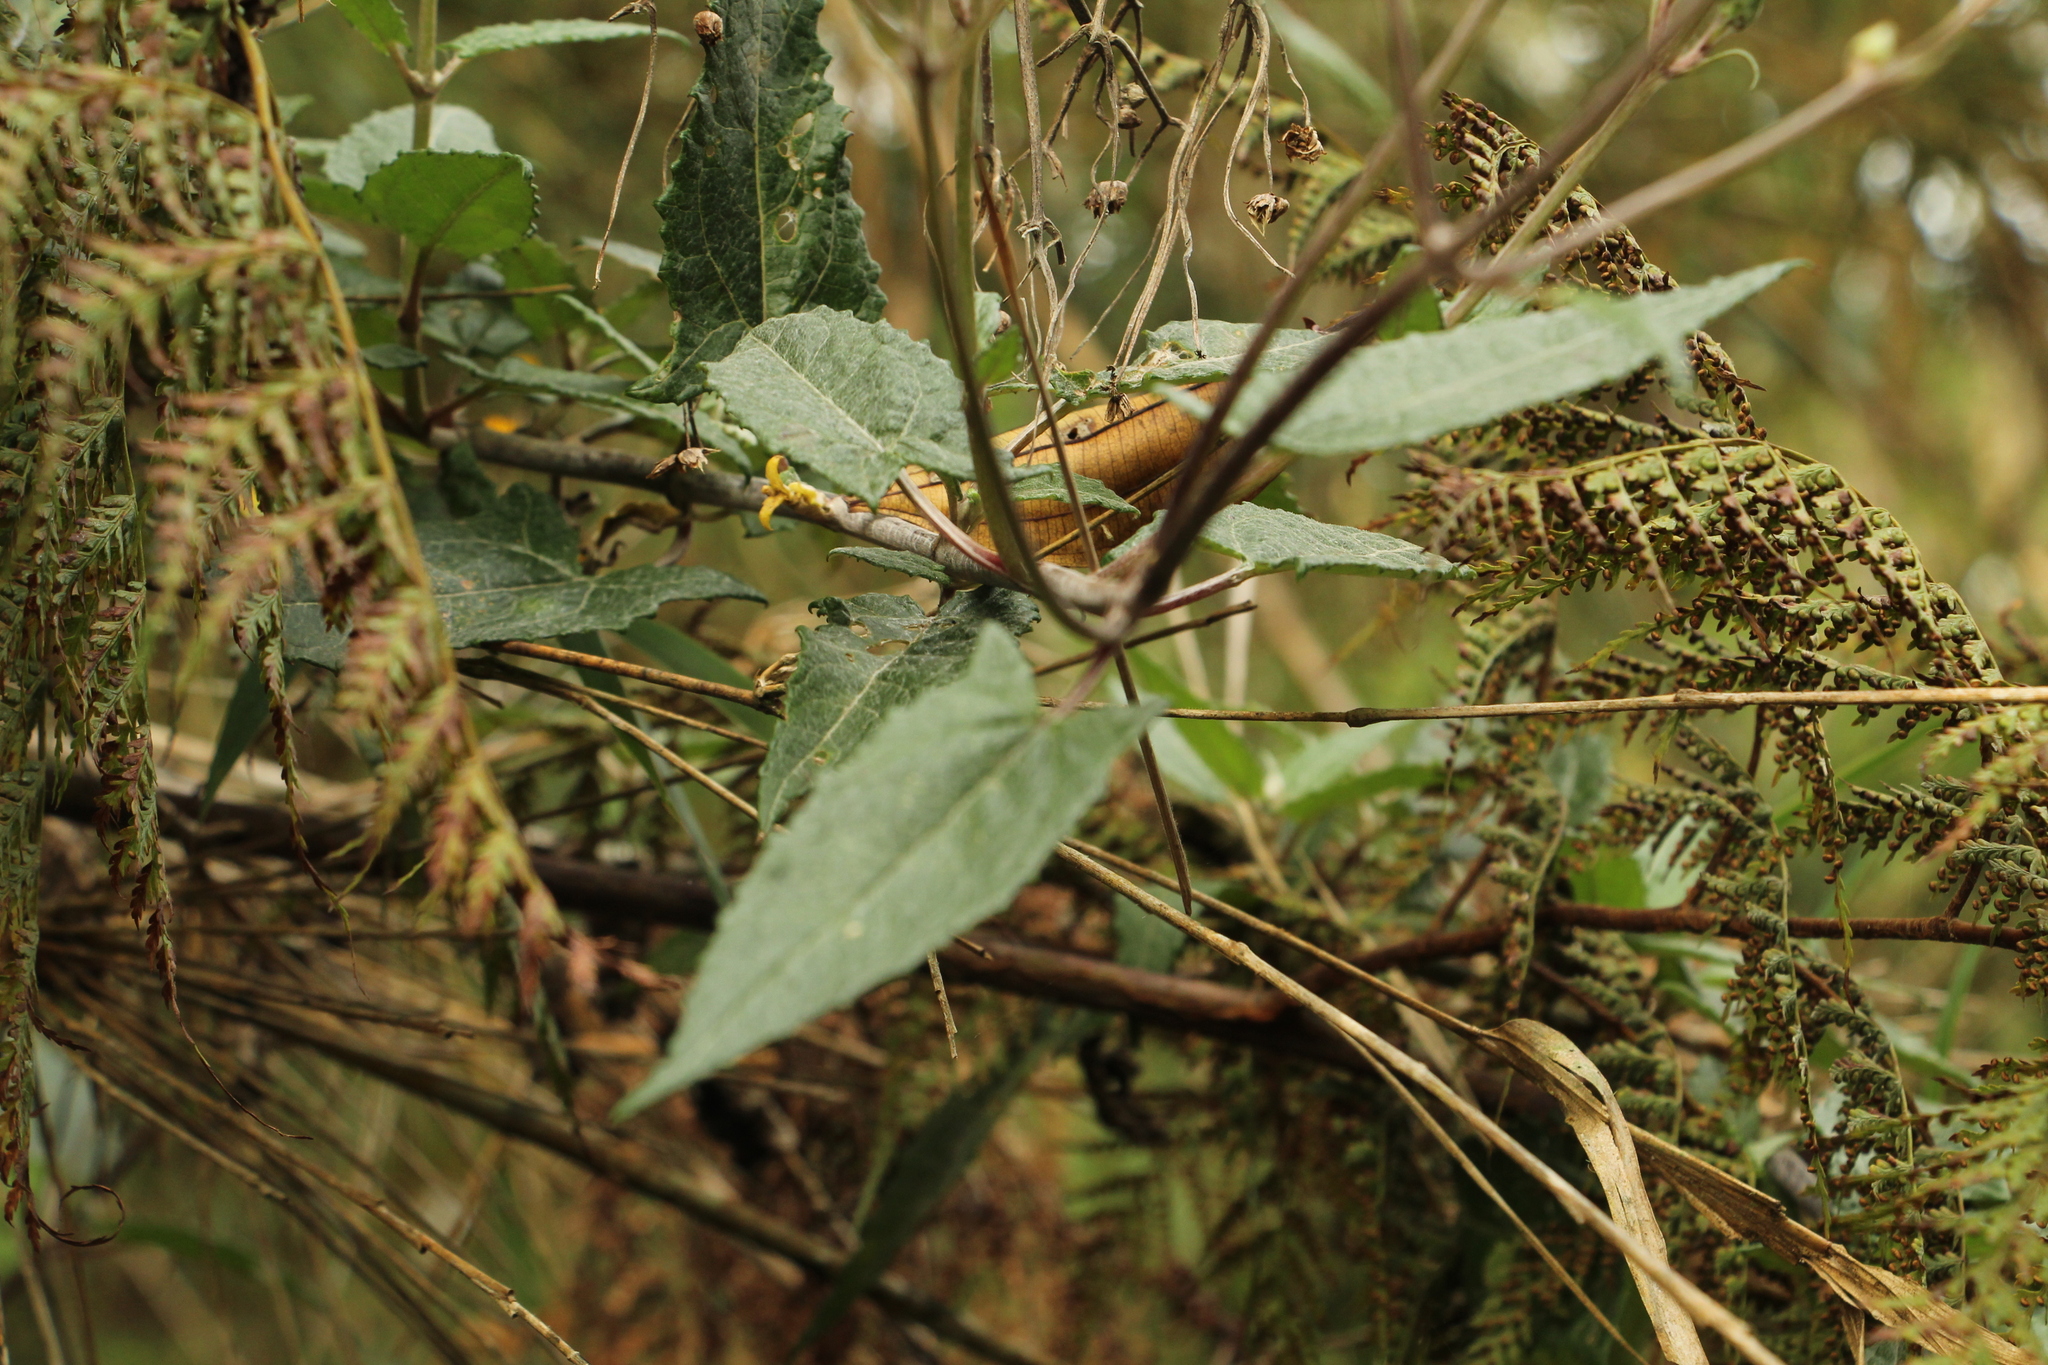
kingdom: Plantae
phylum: Tracheophyta
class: Magnoliopsida
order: Asterales
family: Asteraceae
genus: Munnozia
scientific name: Munnozia senecionidis
